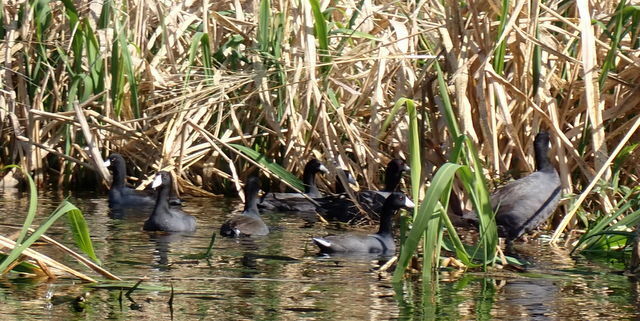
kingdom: Animalia
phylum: Chordata
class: Aves
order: Gruiformes
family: Rallidae
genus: Fulica
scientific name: Fulica americana
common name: American coot
